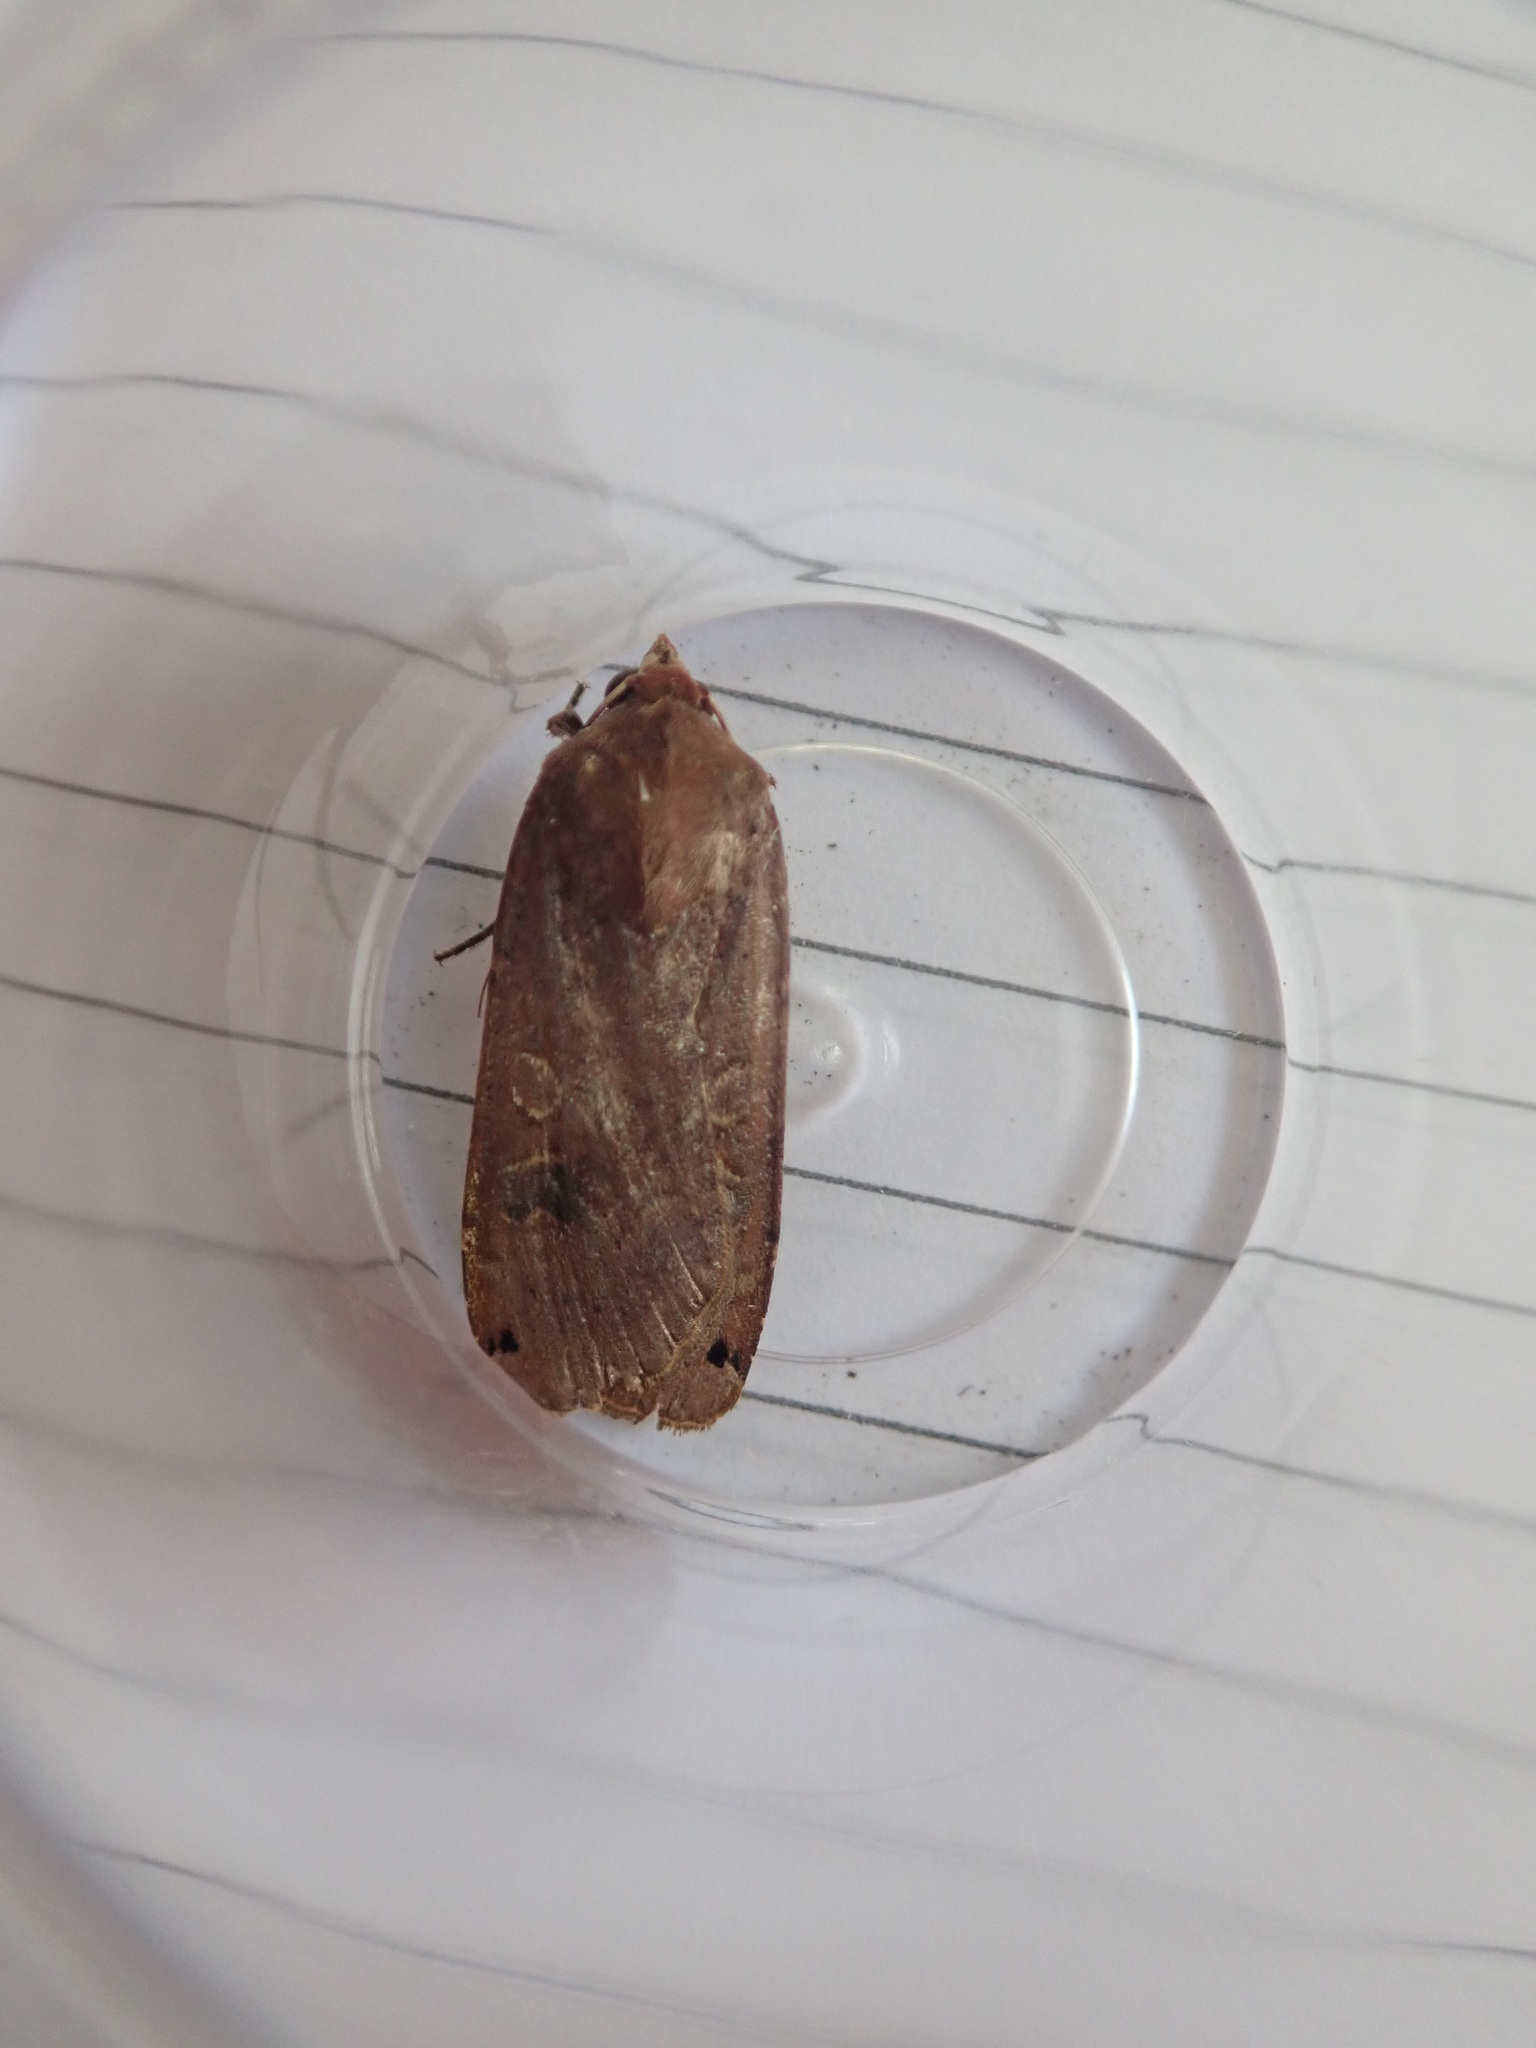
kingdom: Animalia
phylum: Arthropoda
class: Insecta
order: Lepidoptera
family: Noctuidae
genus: Noctua
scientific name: Noctua pronuba
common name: Large yellow underwing
